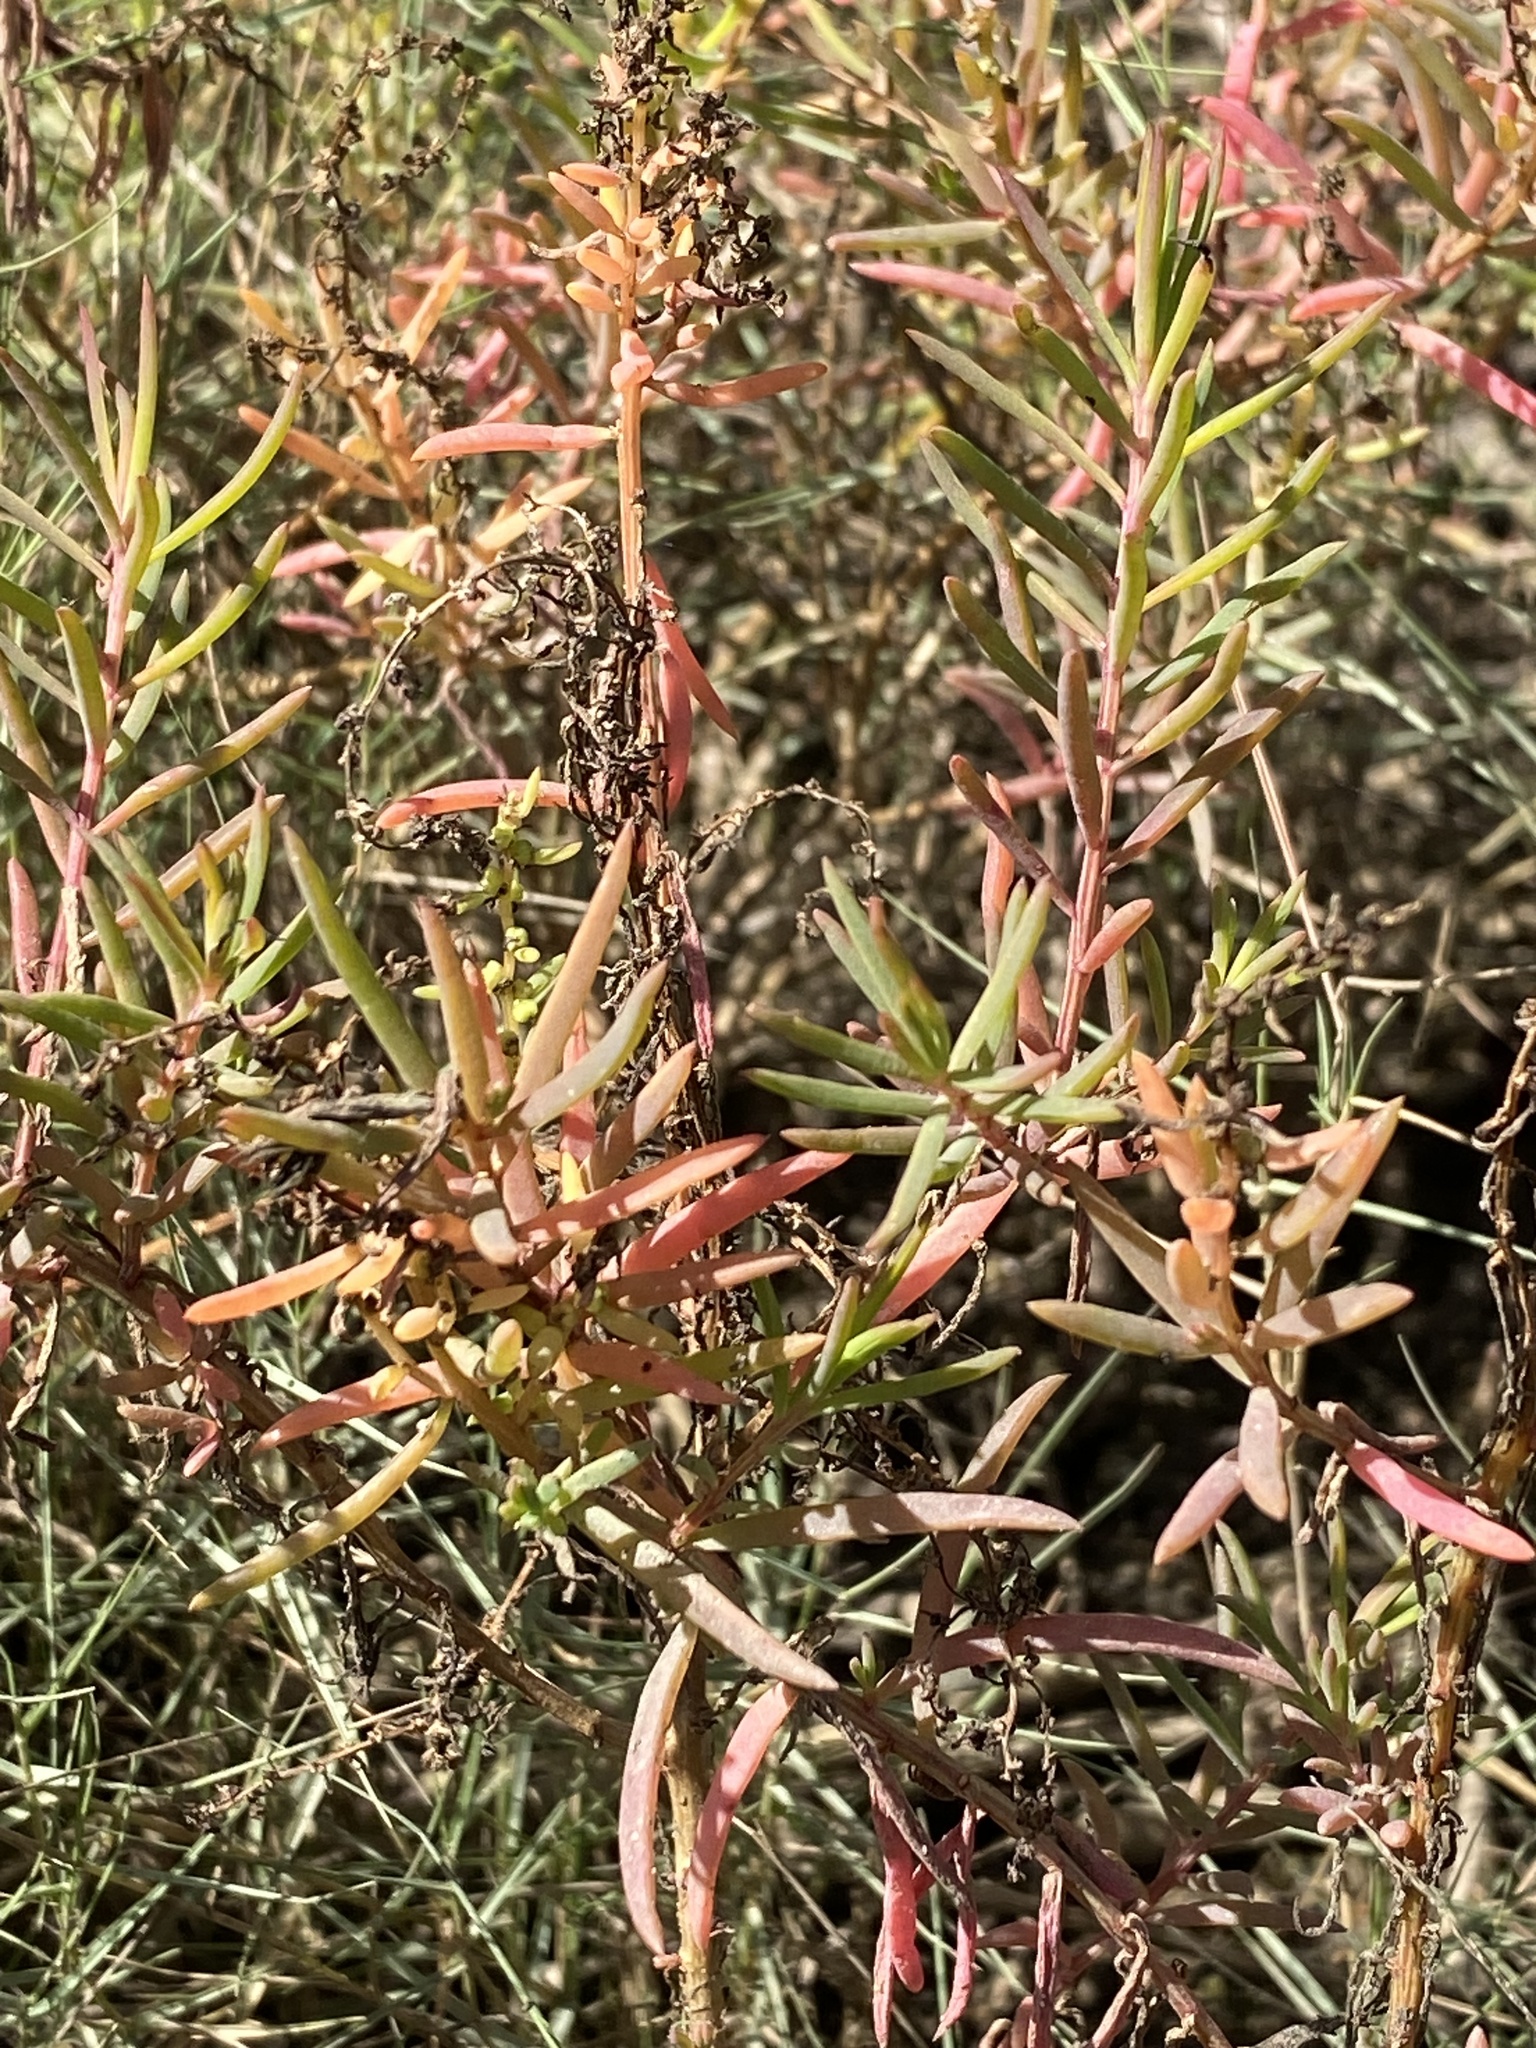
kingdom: Plantae
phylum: Tracheophyta
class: Magnoliopsida
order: Caryophyllales
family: Amaranthaceae
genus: Suaeda
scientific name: Suaeda australis
